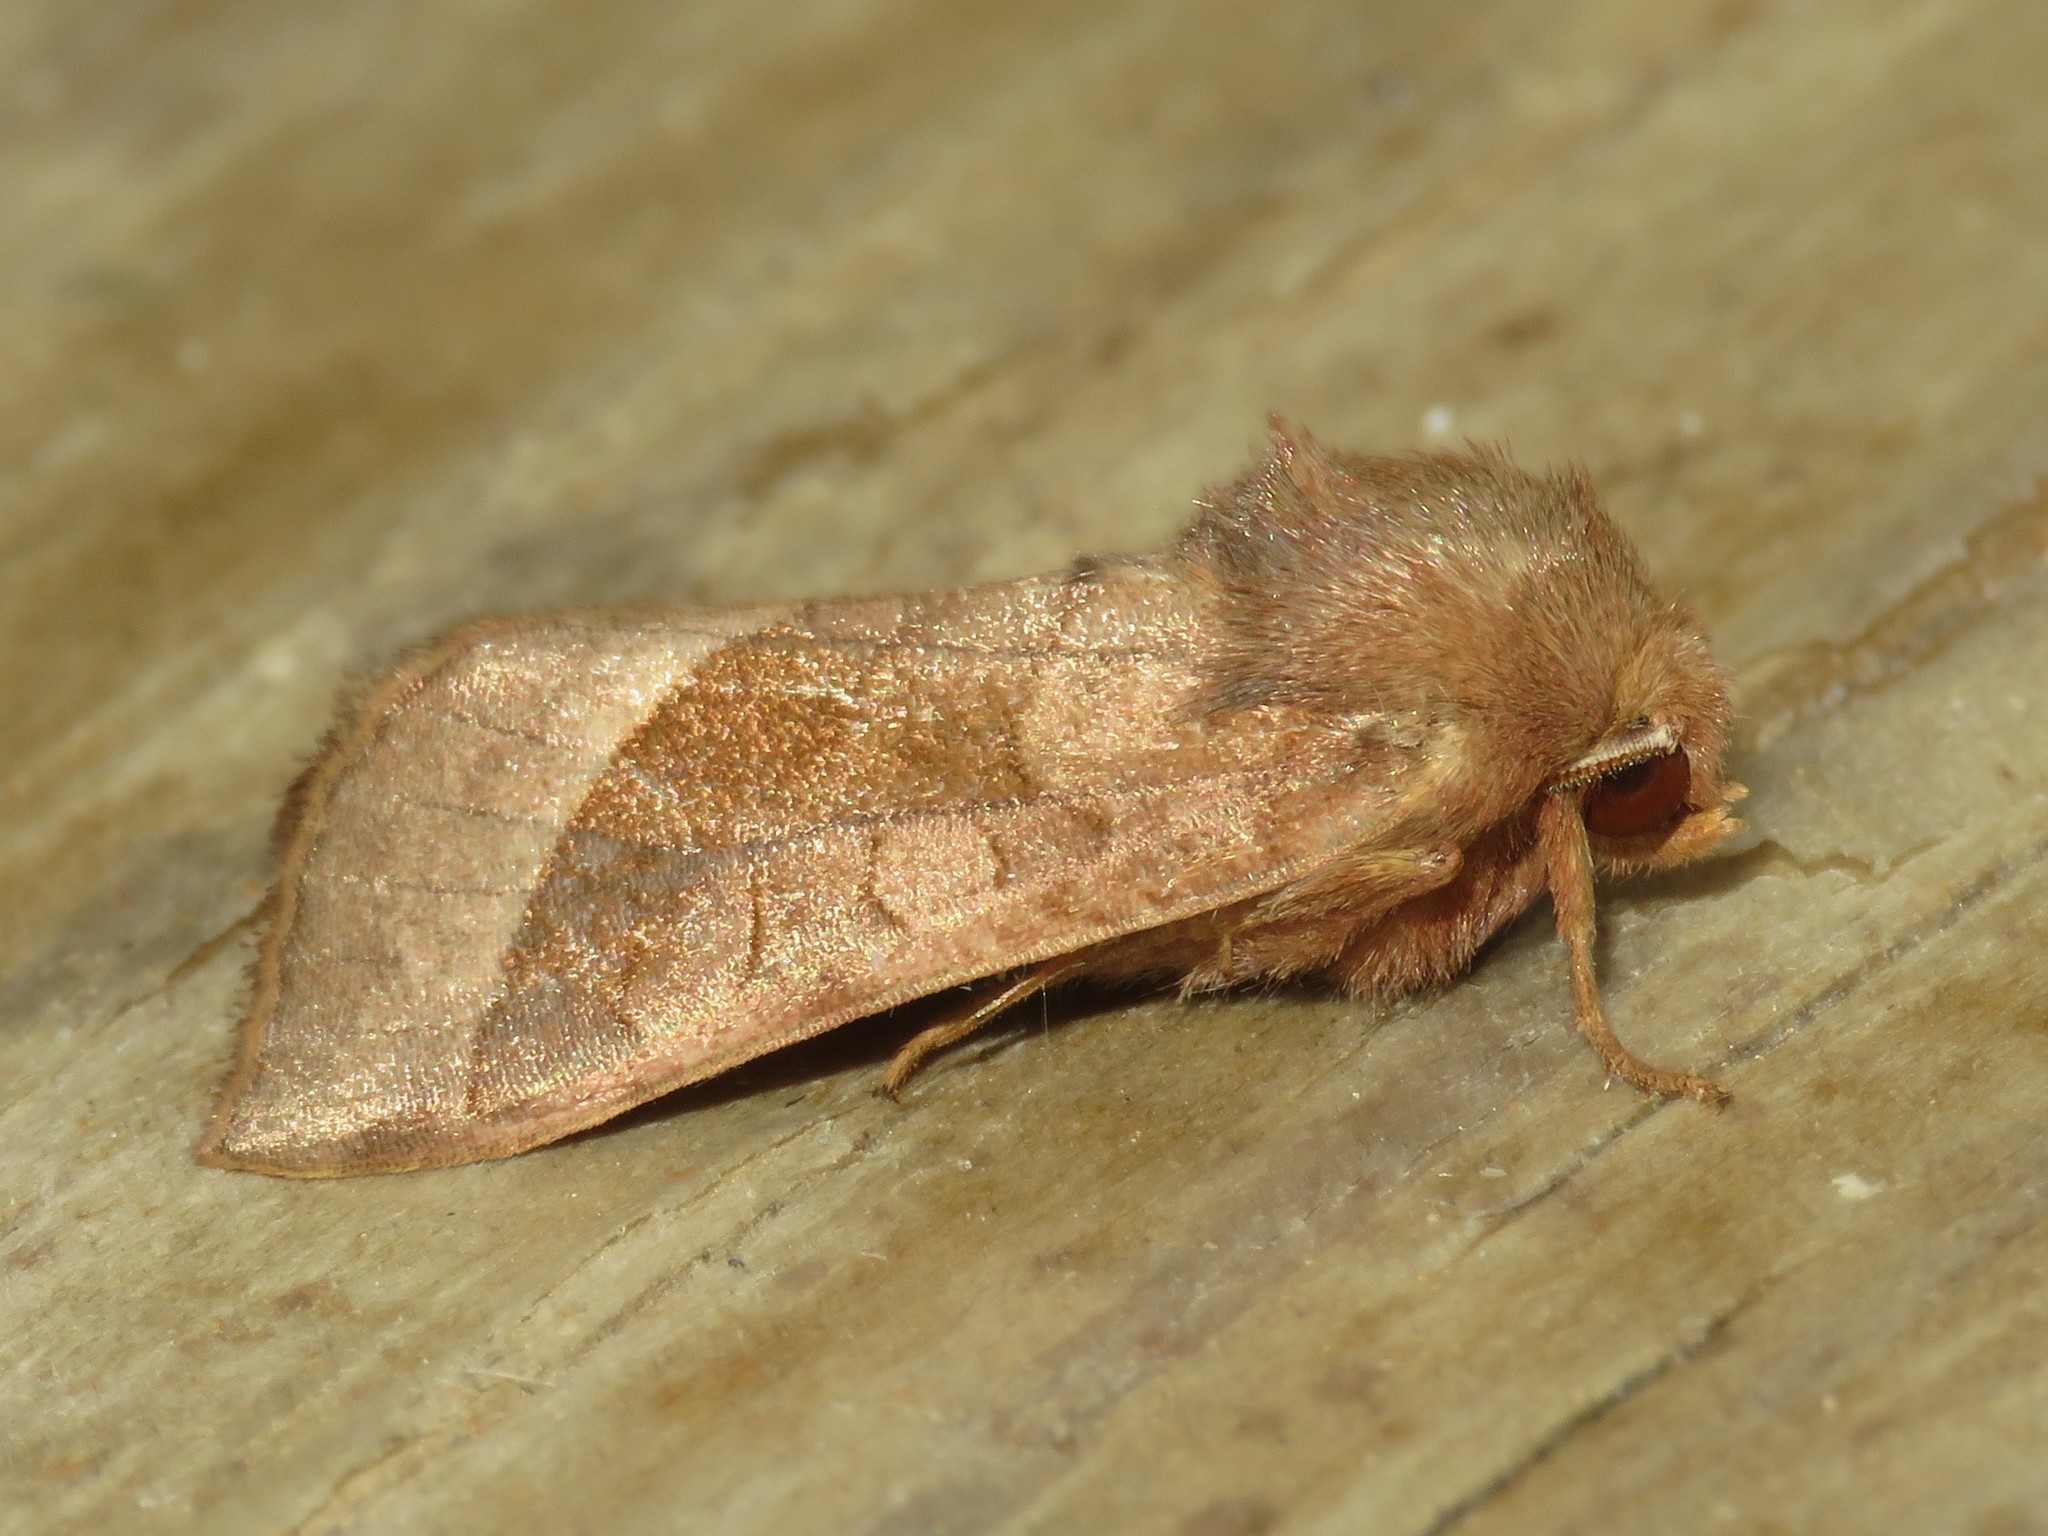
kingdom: Animalia
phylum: Arthropoda
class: Insecta
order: Lepidoptera
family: Noctuidae
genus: Hydraecia
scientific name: Hydraecia micacea
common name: Rosy rustic
